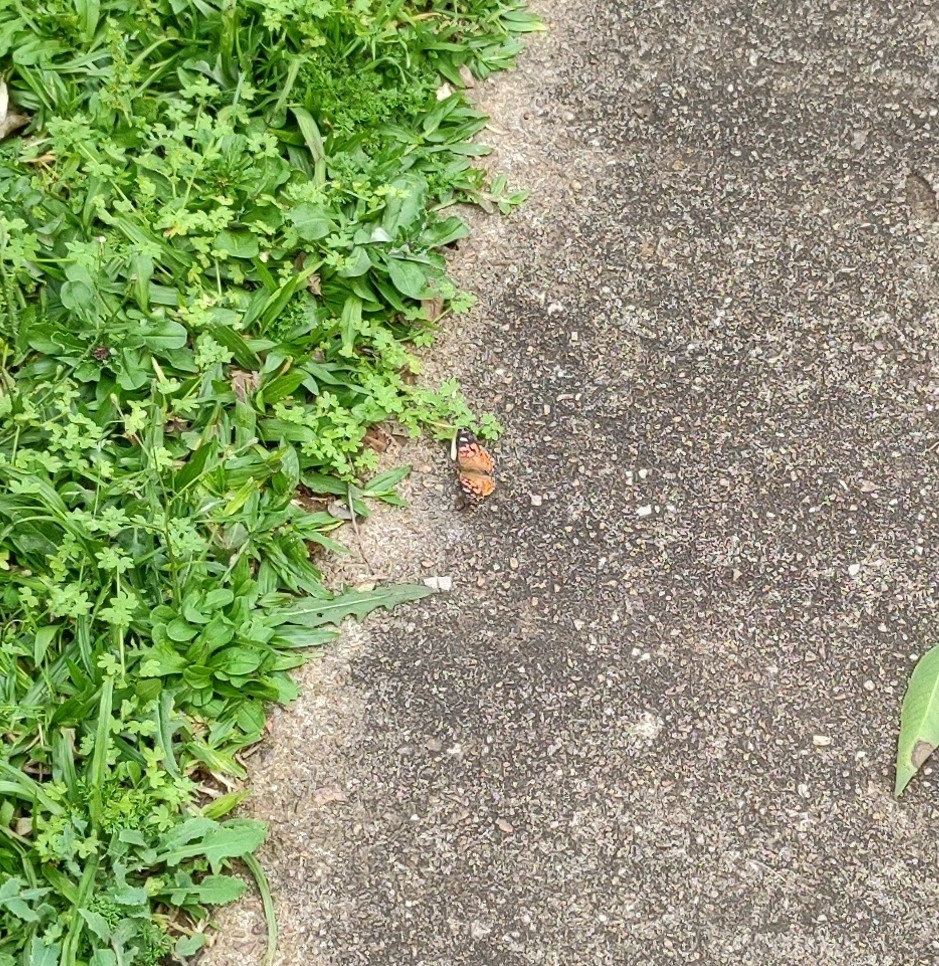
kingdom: Animalia
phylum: Arthropoda
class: Insecta
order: Lepidoptera
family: Nymphalidae
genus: Vanessa
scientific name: Vanessa braziliensis
